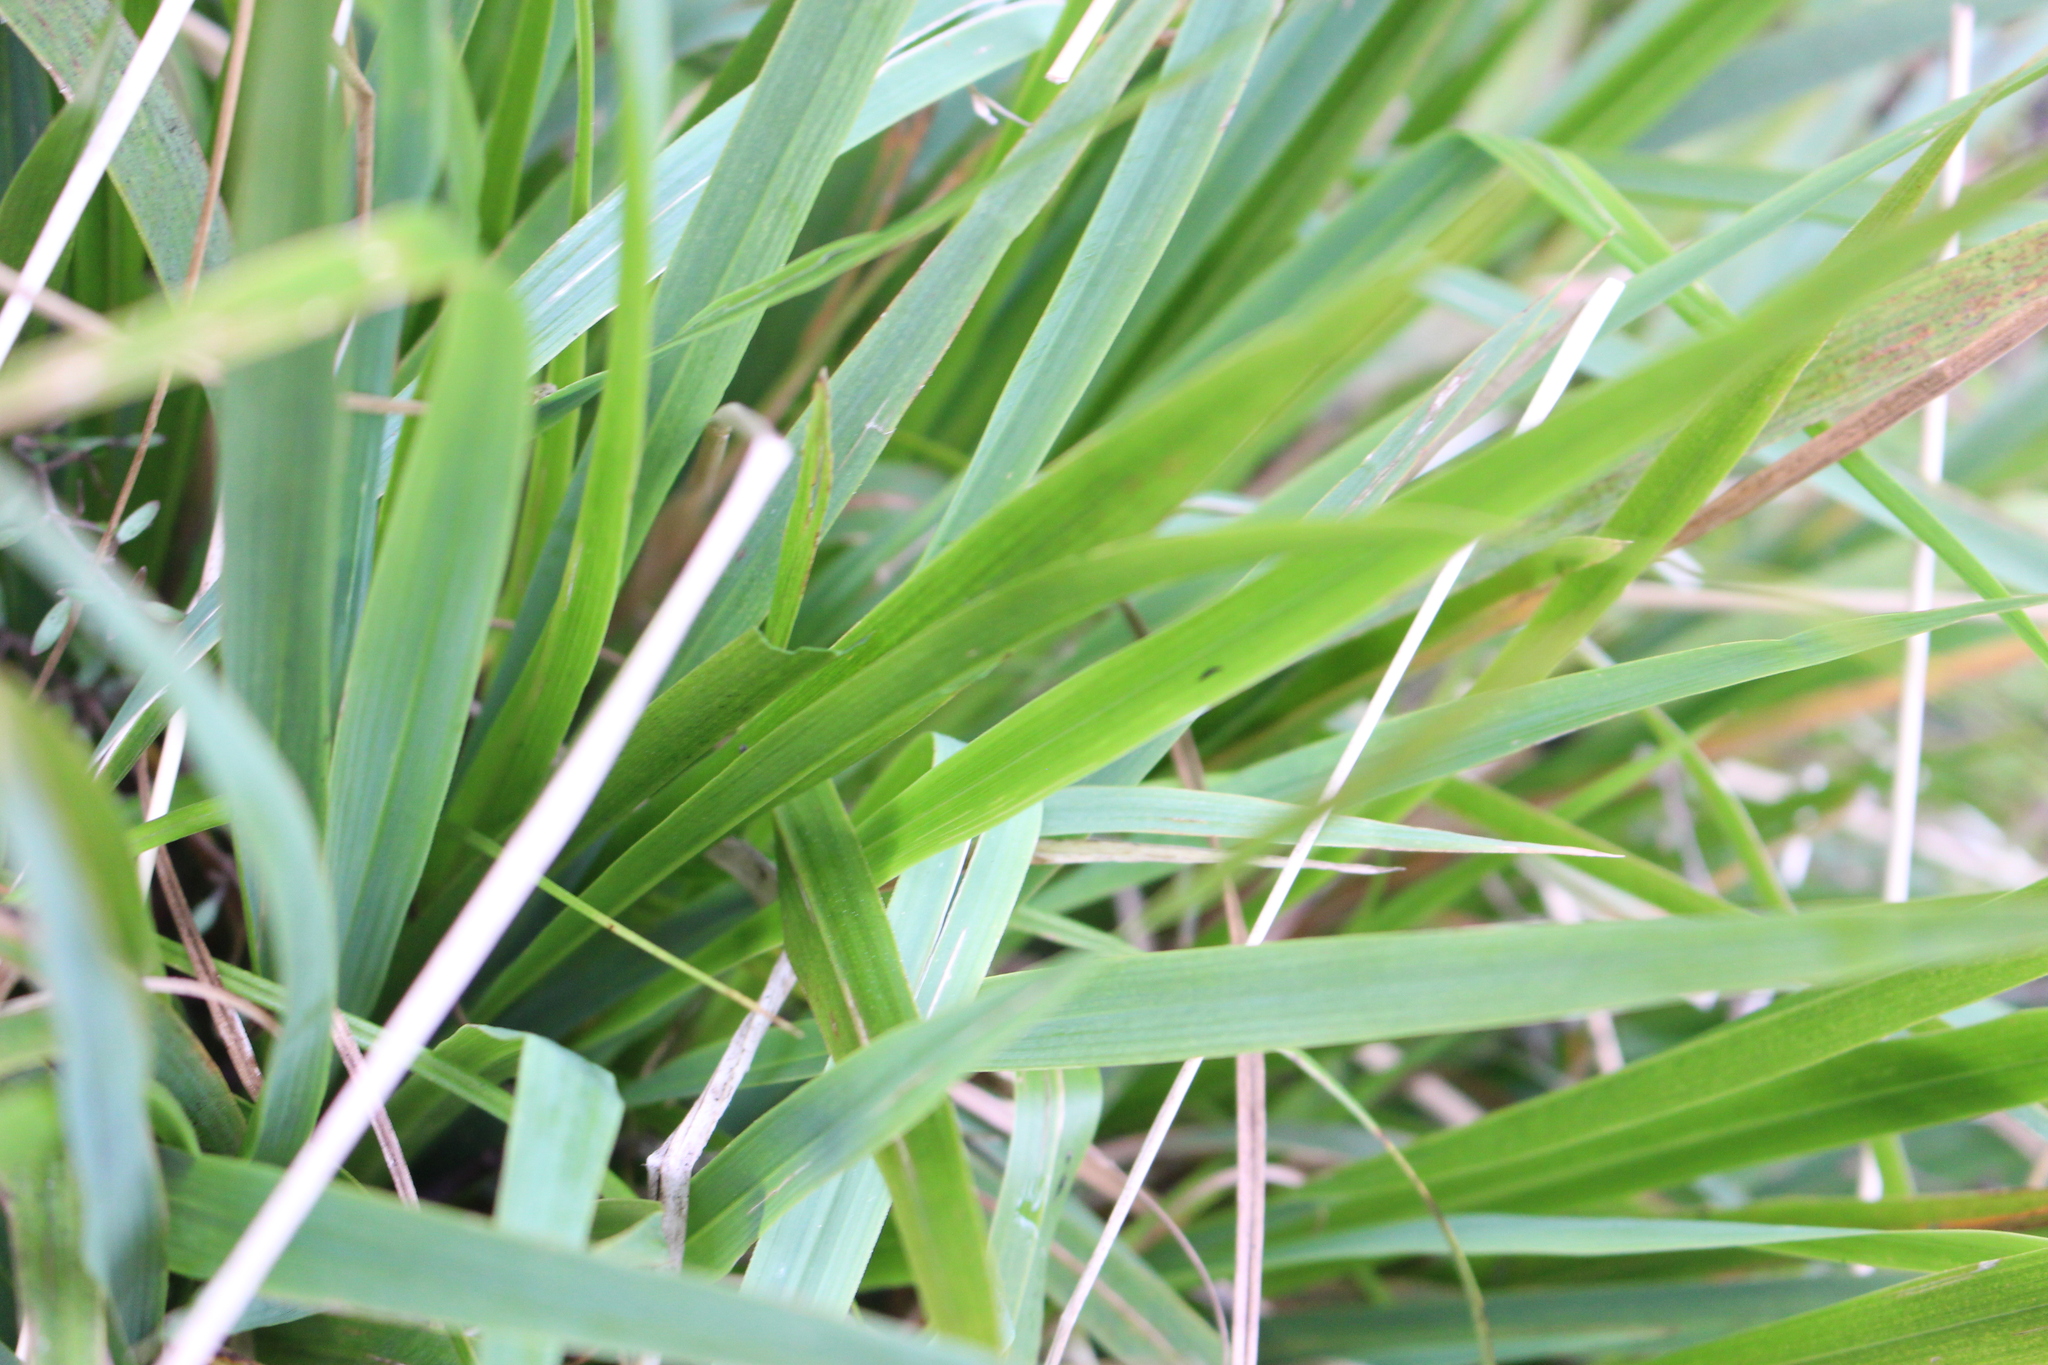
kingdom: Plantae
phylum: Tracheophyta
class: Liliopsida
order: Poales
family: Poaceae
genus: Ehrharta
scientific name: Ehrharta diplax
